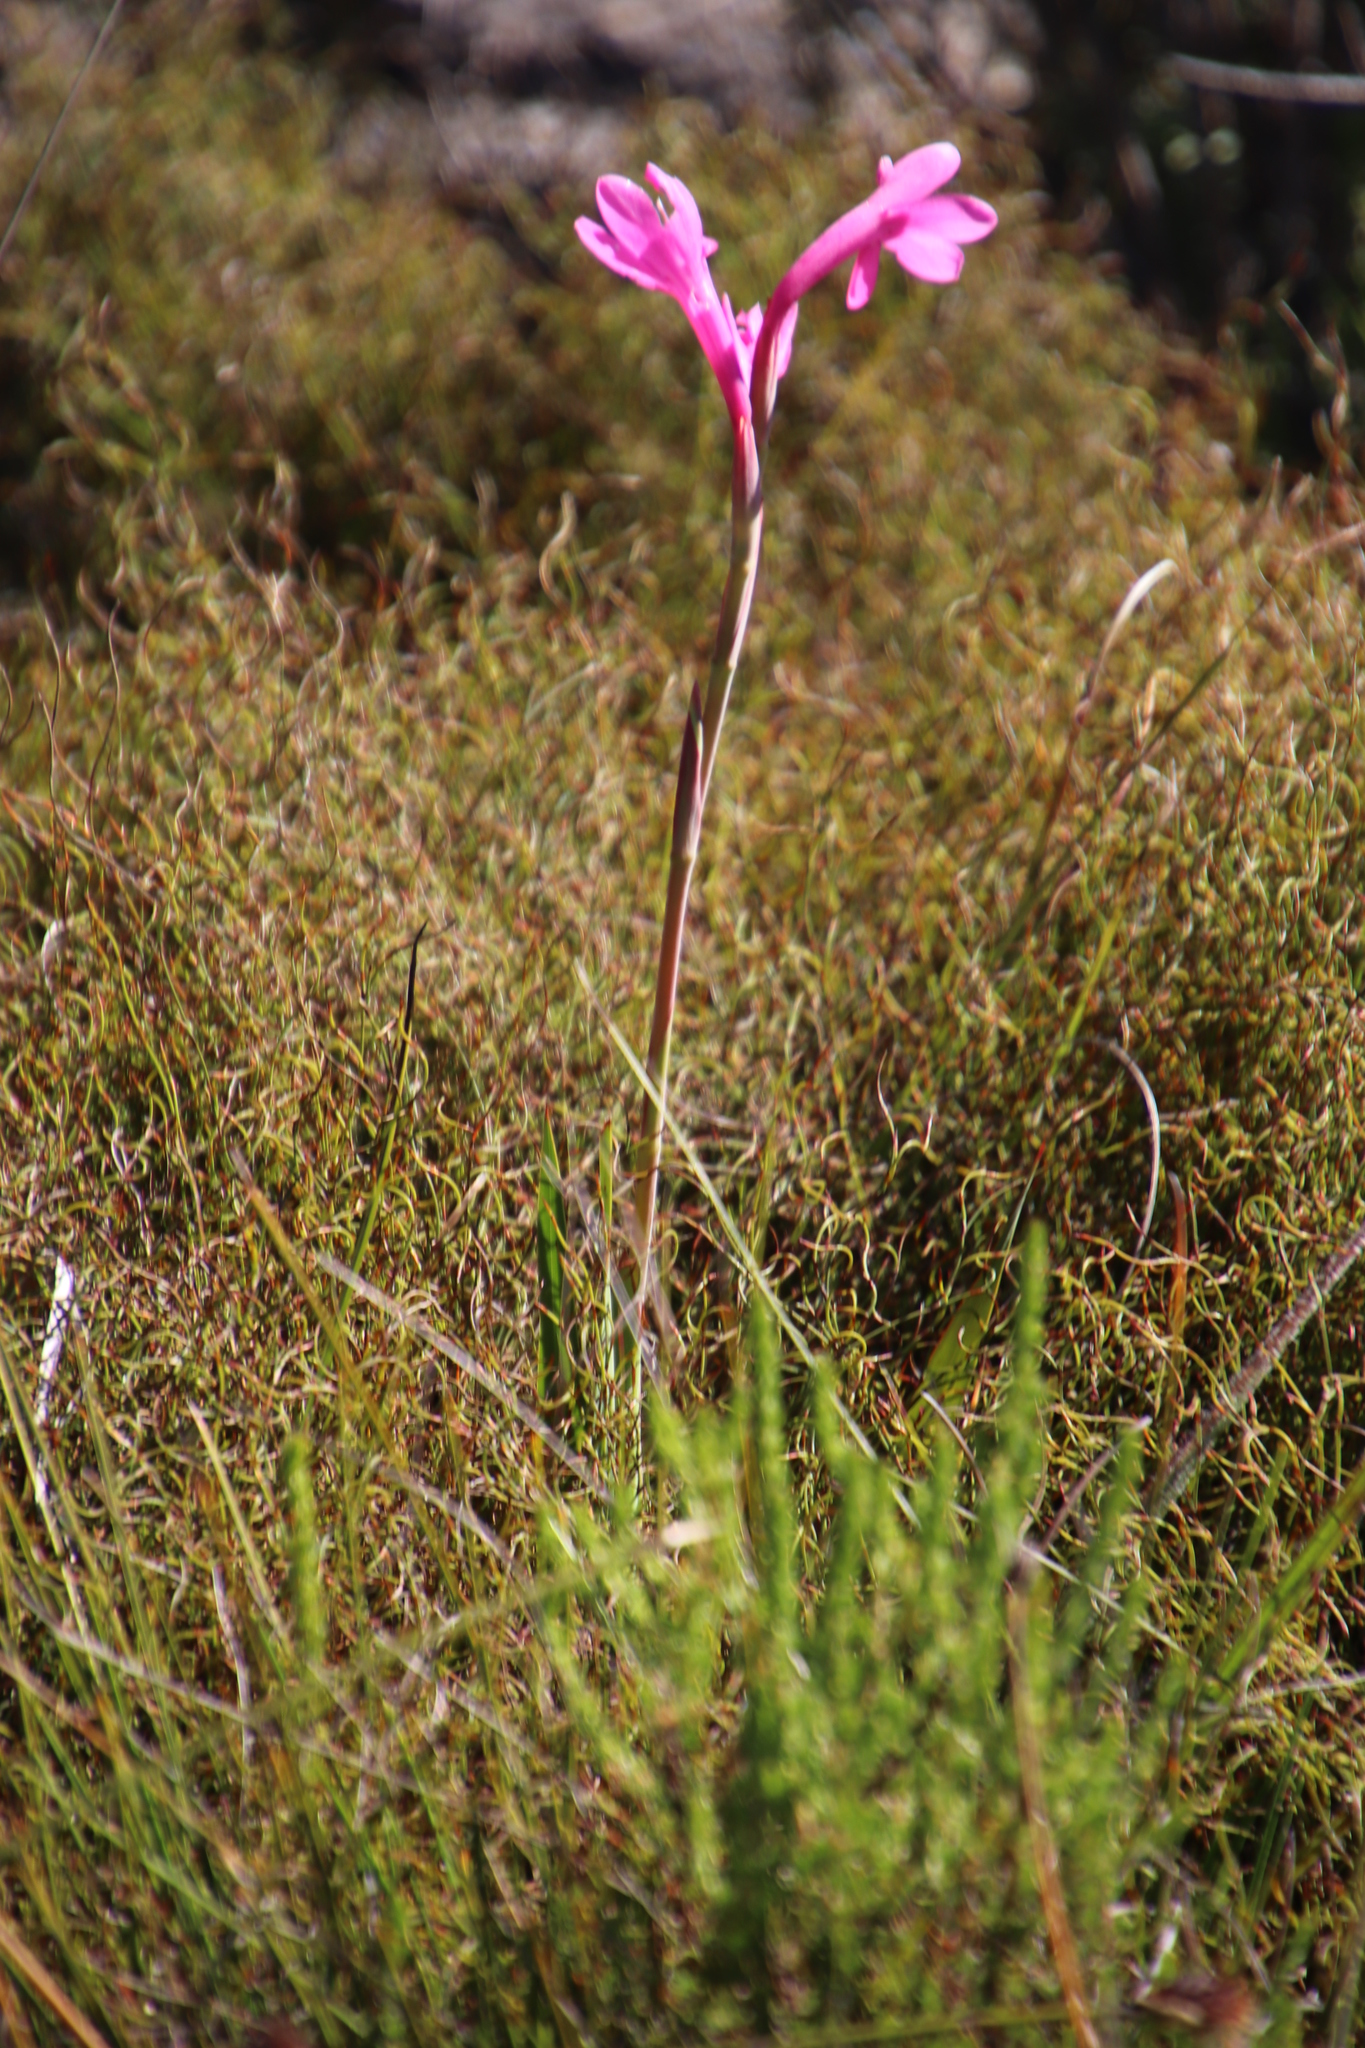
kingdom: Plantae
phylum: Tracheophyta
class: Liliopsida
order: Asparagales
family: Iridaceae
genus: Watsonia
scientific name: Watsonia coccinea
